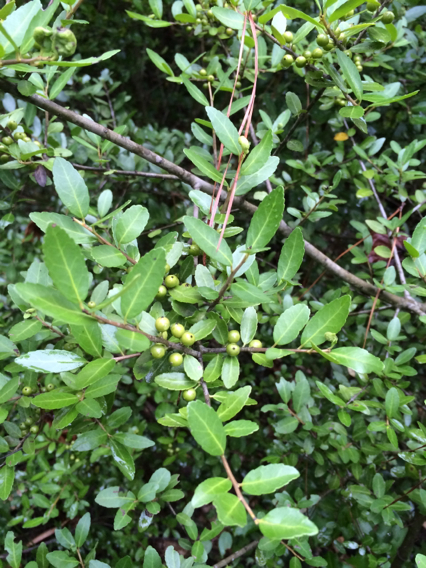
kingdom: Plantae
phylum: Tracheophyta
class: Magnoliopsida
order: Aquifoliales
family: Aquifoliaceae
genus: Ilex
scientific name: Ilex vomitoria
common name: Yaupon holly
